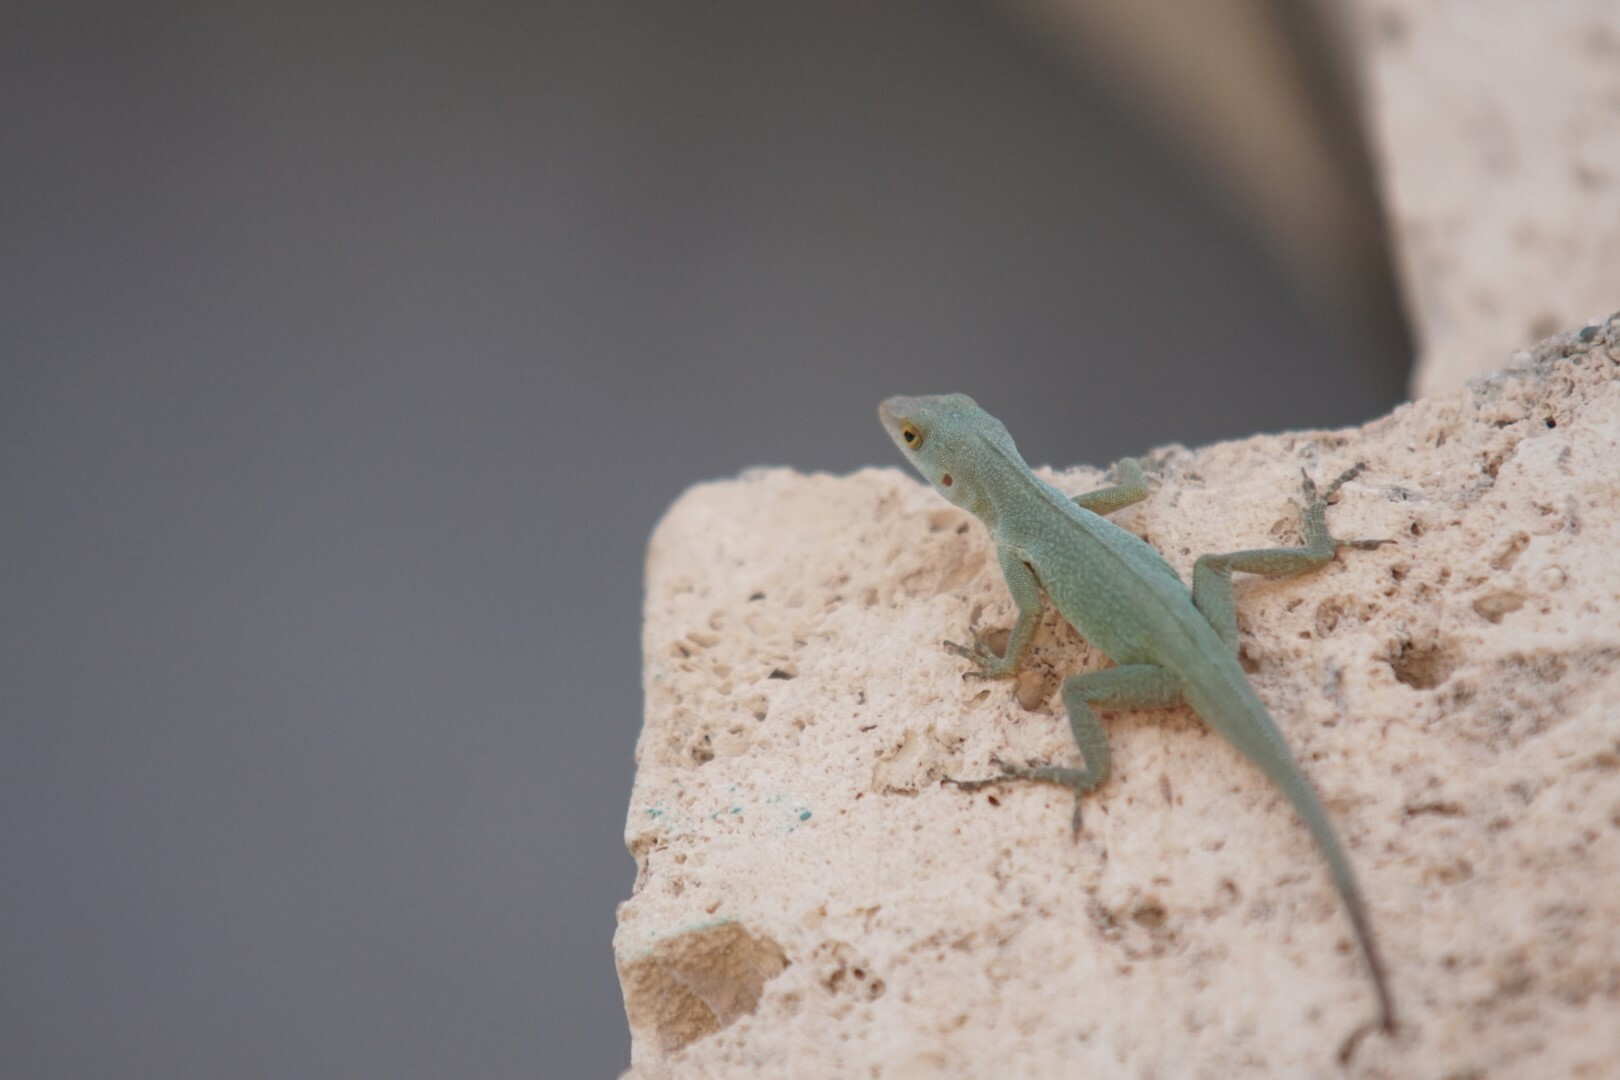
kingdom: Animalia
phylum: Chordata
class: Squamata
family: Dactyloidae
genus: Anolis
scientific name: Anolis chrysops
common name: Petite terre anole
